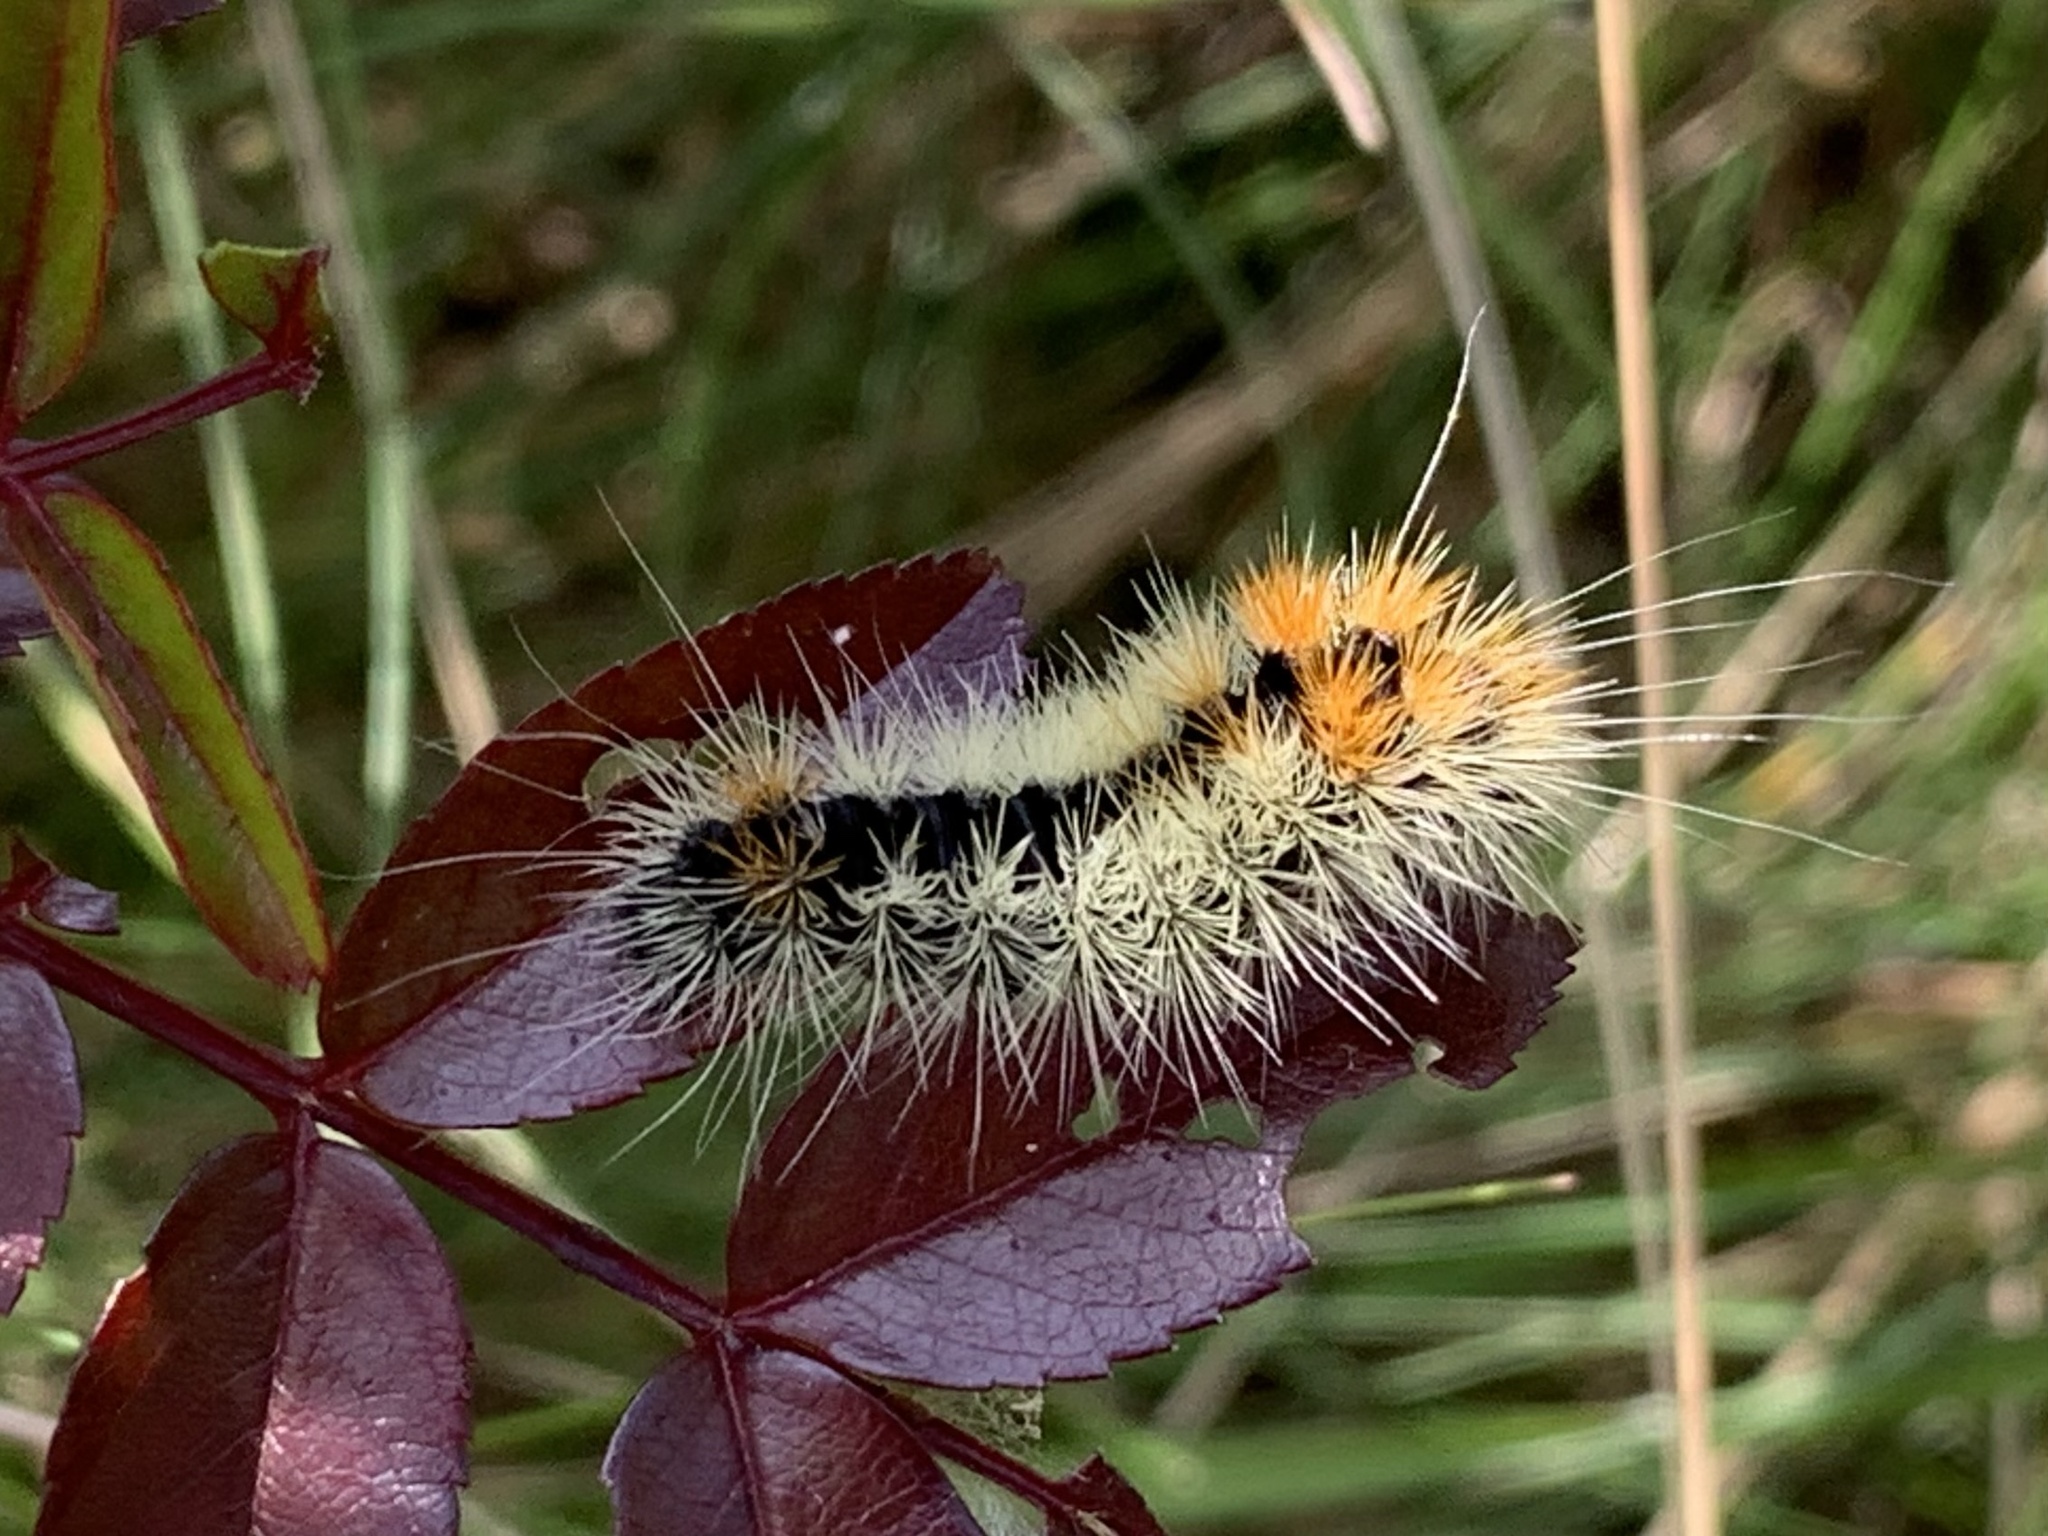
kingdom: Animalia
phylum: Arthropoda
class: Insecta
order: Lepidoptera
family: Noctuidae
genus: Acronicta
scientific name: Acronicta impressa
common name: Impressed dagger
